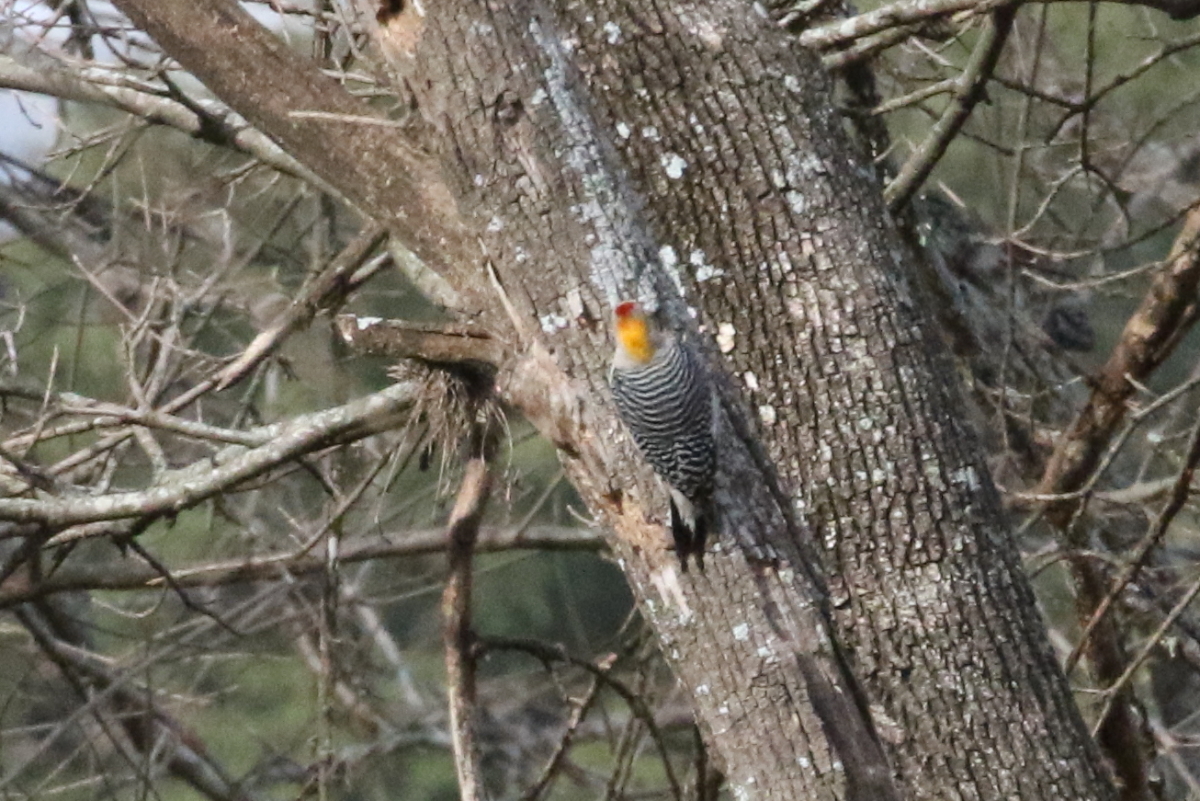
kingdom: Animalia
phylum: Chordata
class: Aves
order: Piciformes
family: Picidae
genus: Melanerpes
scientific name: Melanerpes aurifrons
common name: Golden-fronted woodpecker
